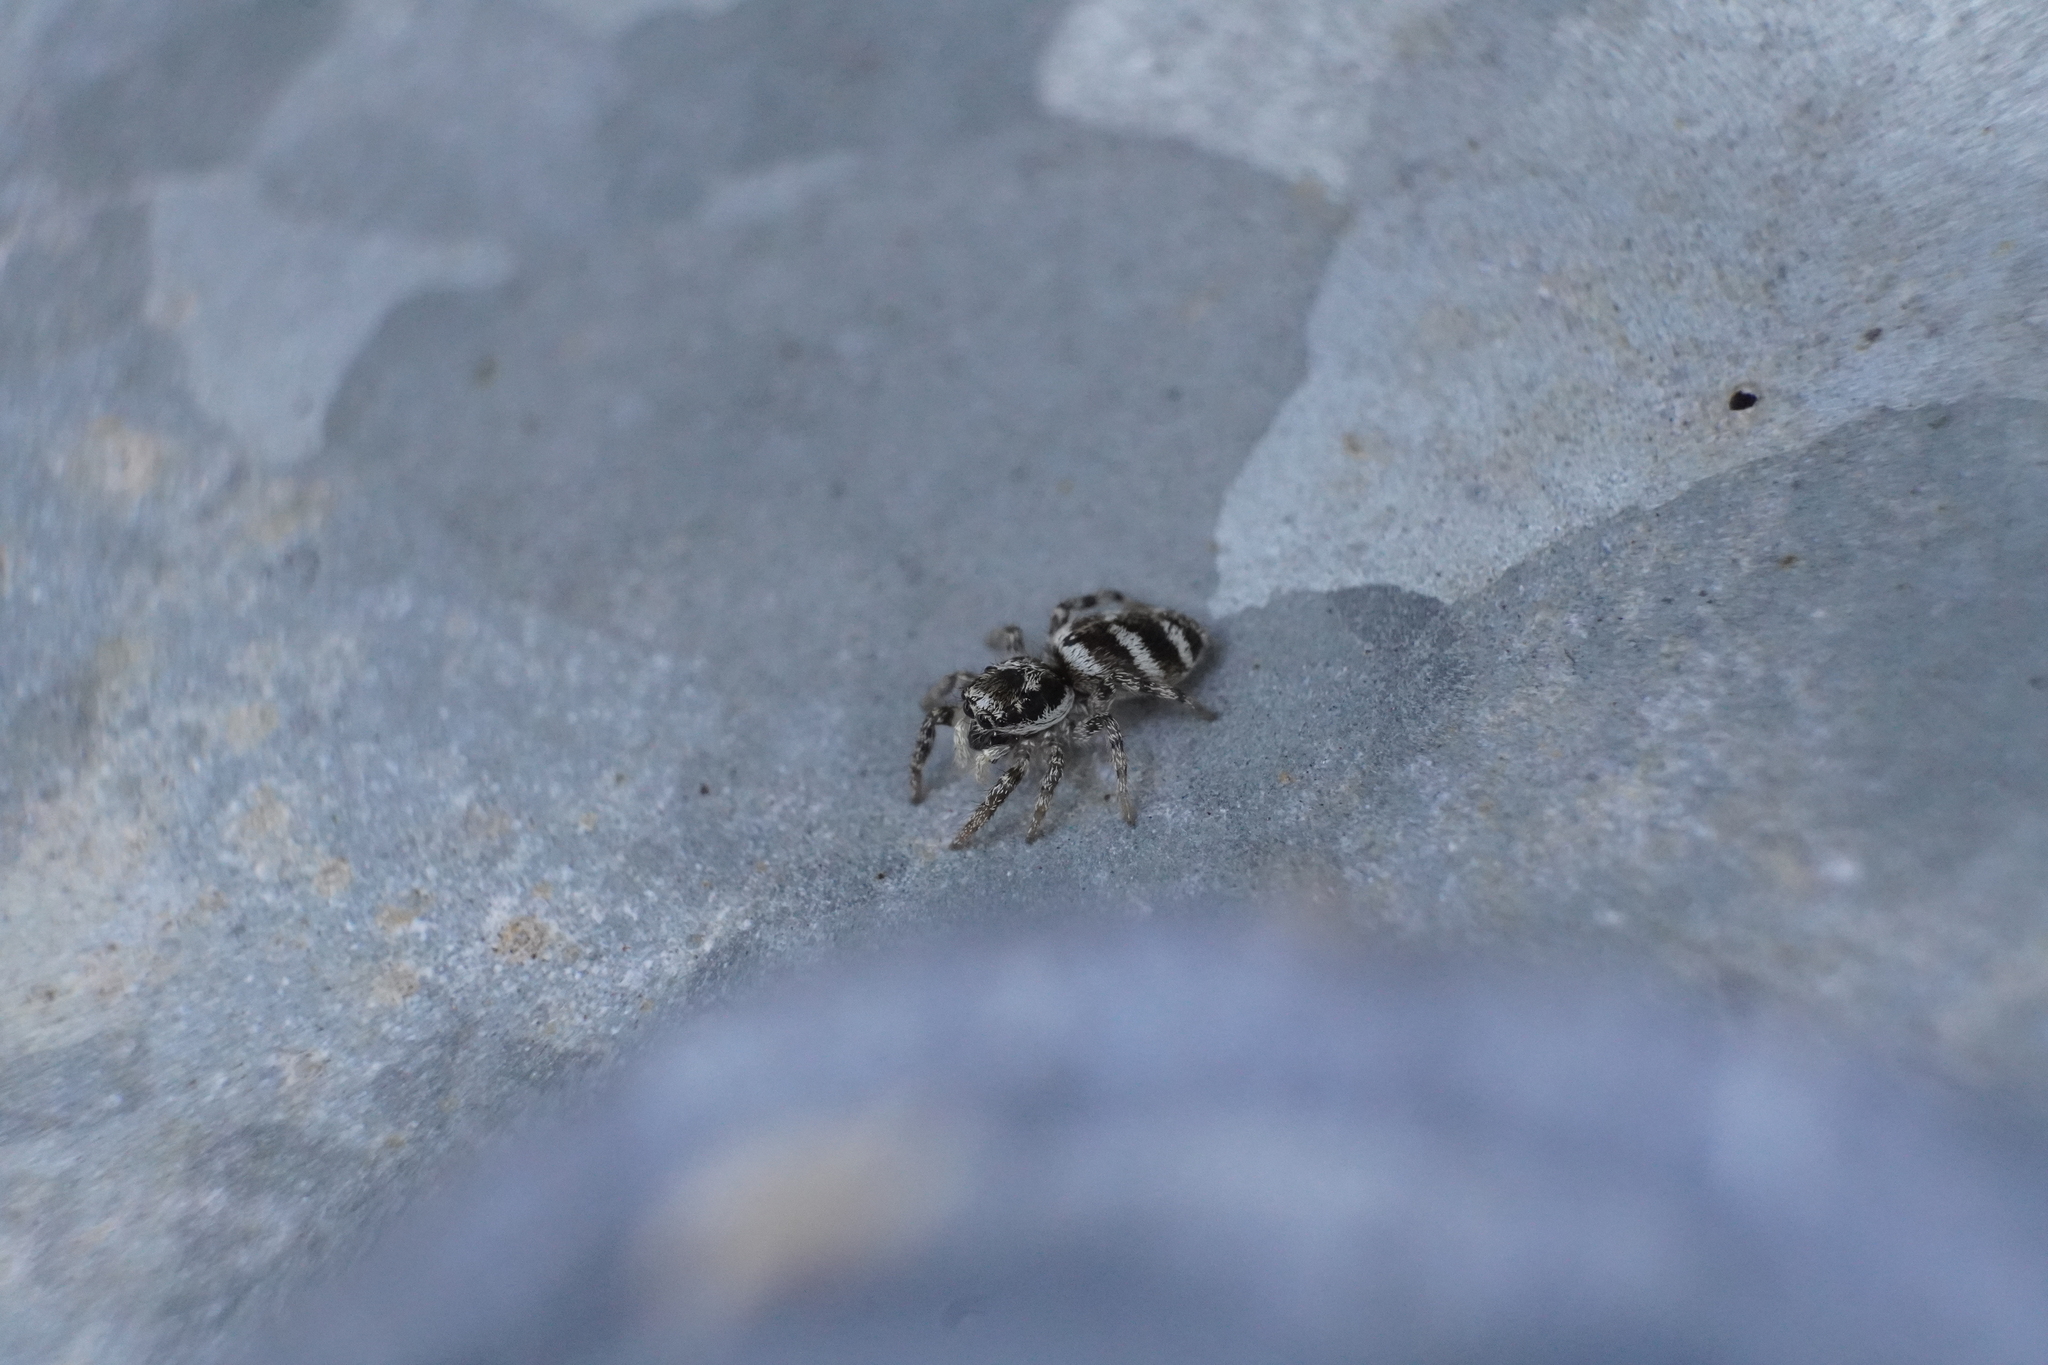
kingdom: Animalia
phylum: Arthropoda
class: Arachnida
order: Araneae
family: Salticidae
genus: Salticus
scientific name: Salticus scenicus
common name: Zebra jumper
